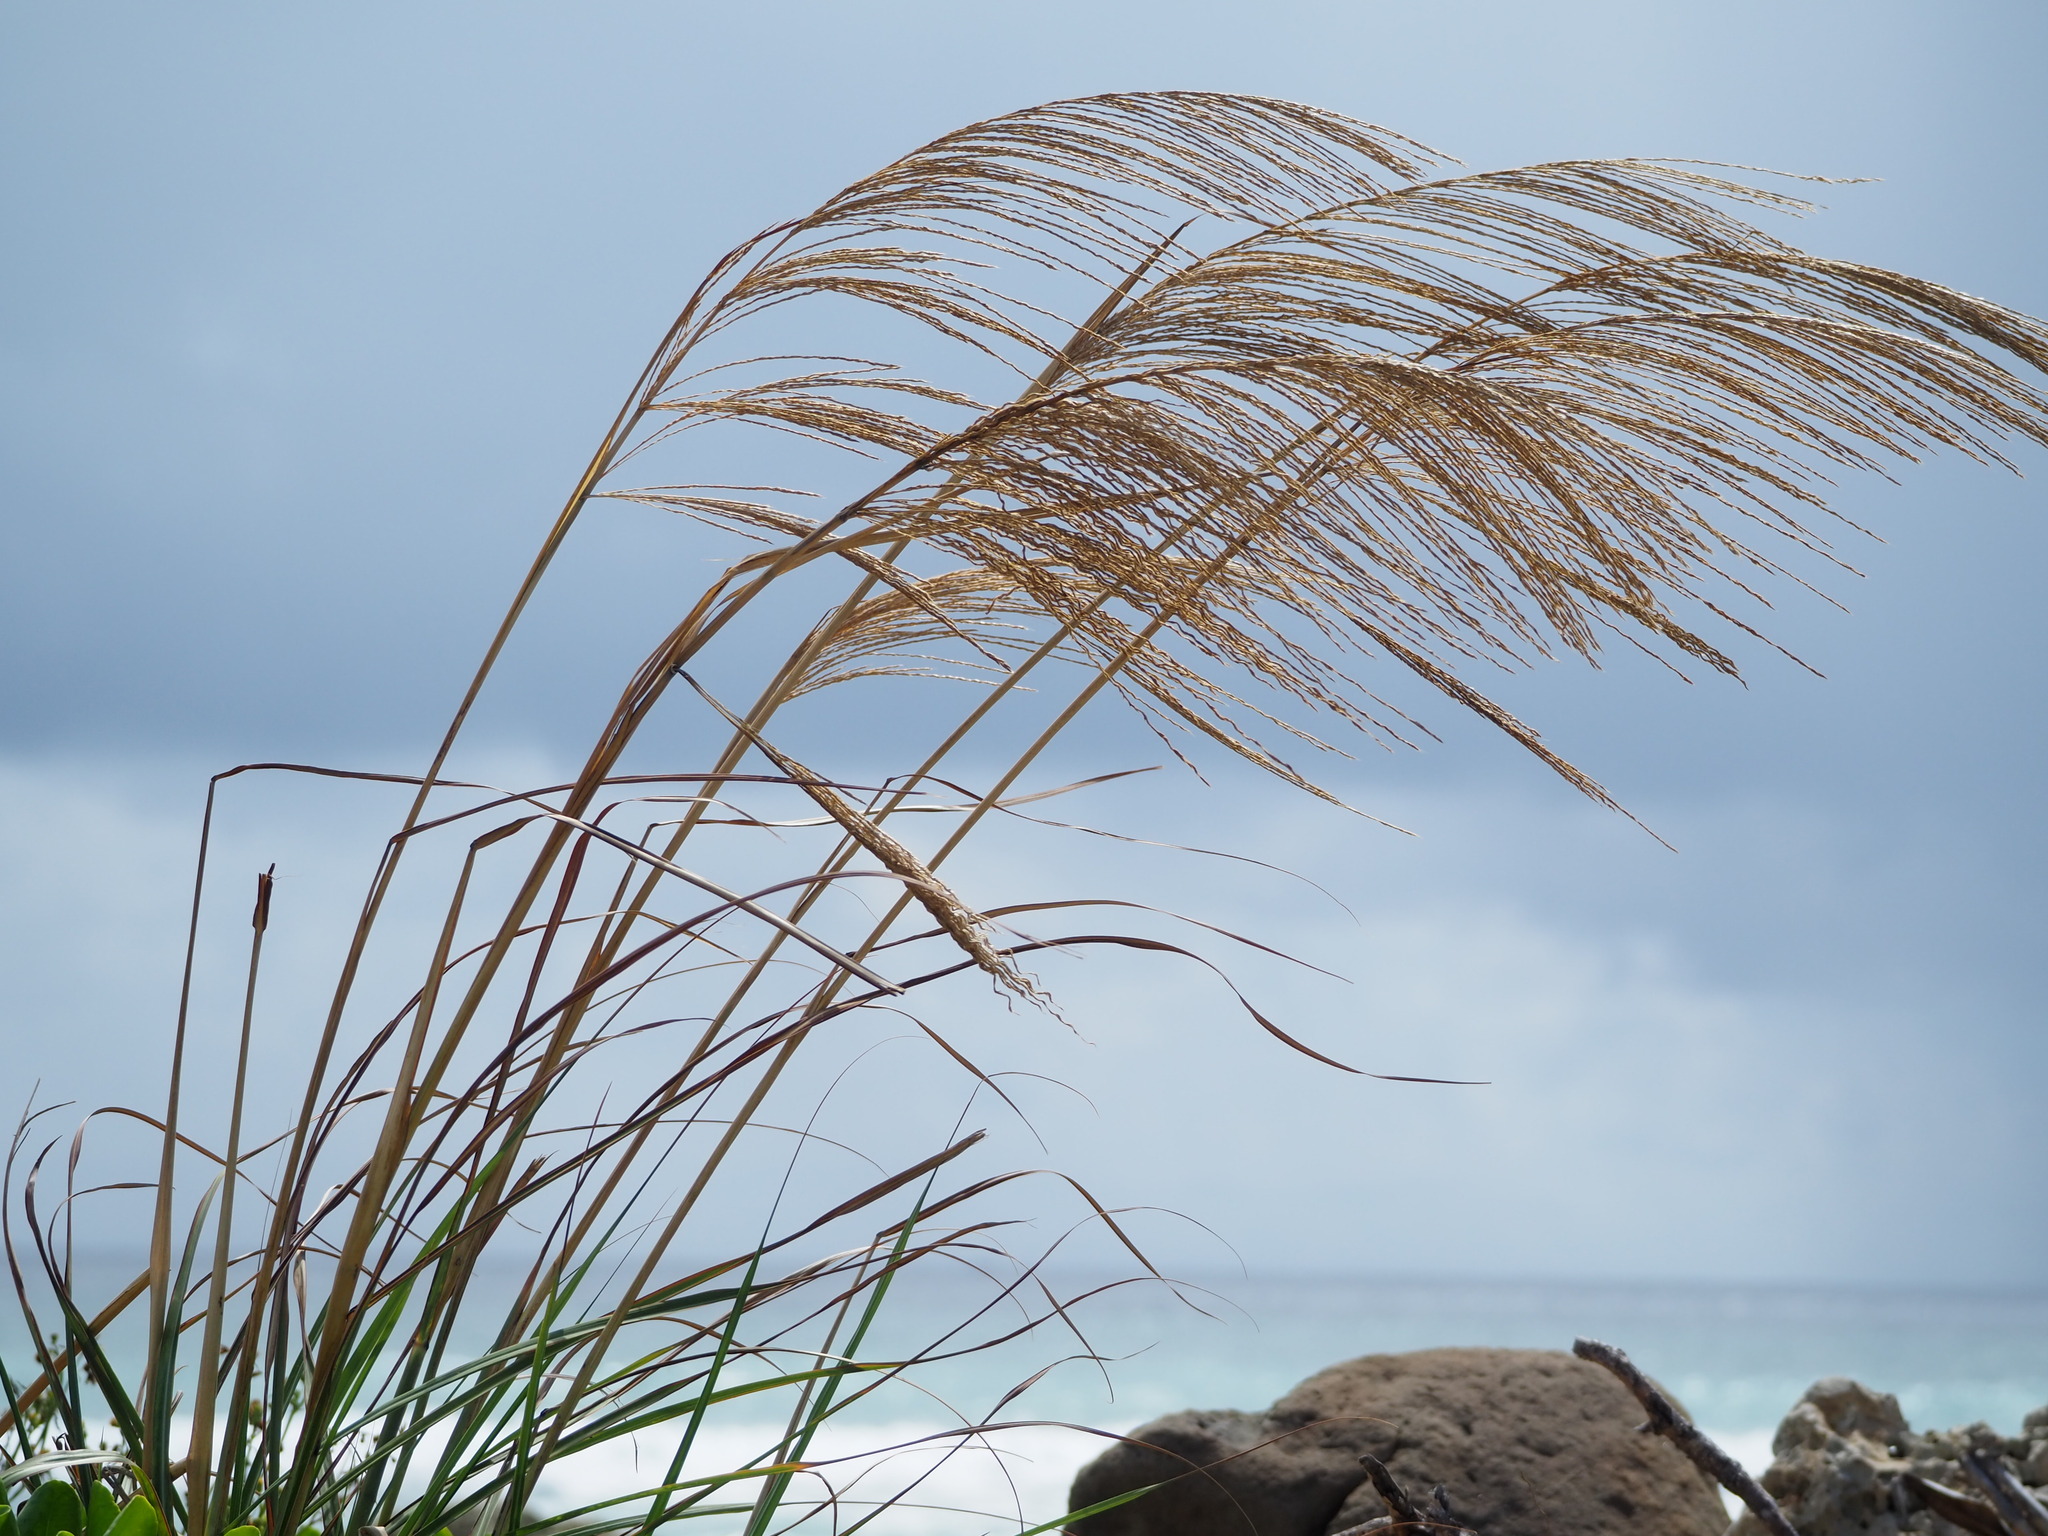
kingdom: Plantae
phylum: Tracheophyta
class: Liliopsida
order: Poales
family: Poaceae
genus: Miscanthus
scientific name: Miscanthus sinensis
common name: Chinese silvergrass
